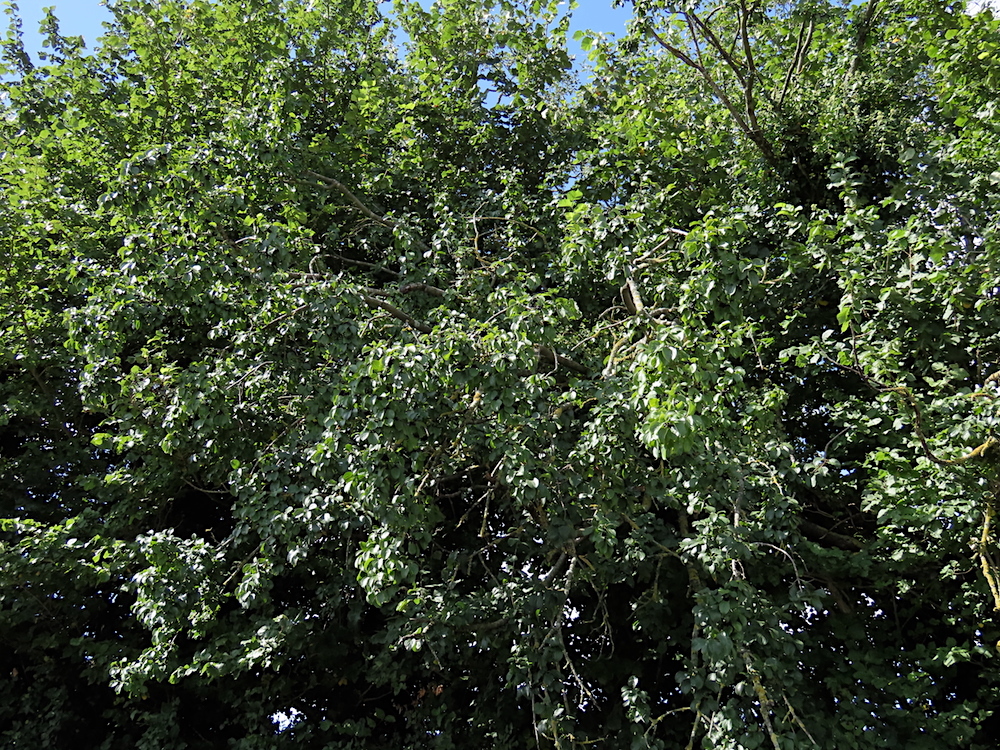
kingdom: Plantae
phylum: Tracheophyta
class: Magnoliopsida
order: Rosales
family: Rhamnaceae
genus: Rhamnus
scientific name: Rhamnus cathartica
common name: Common buckthorn
